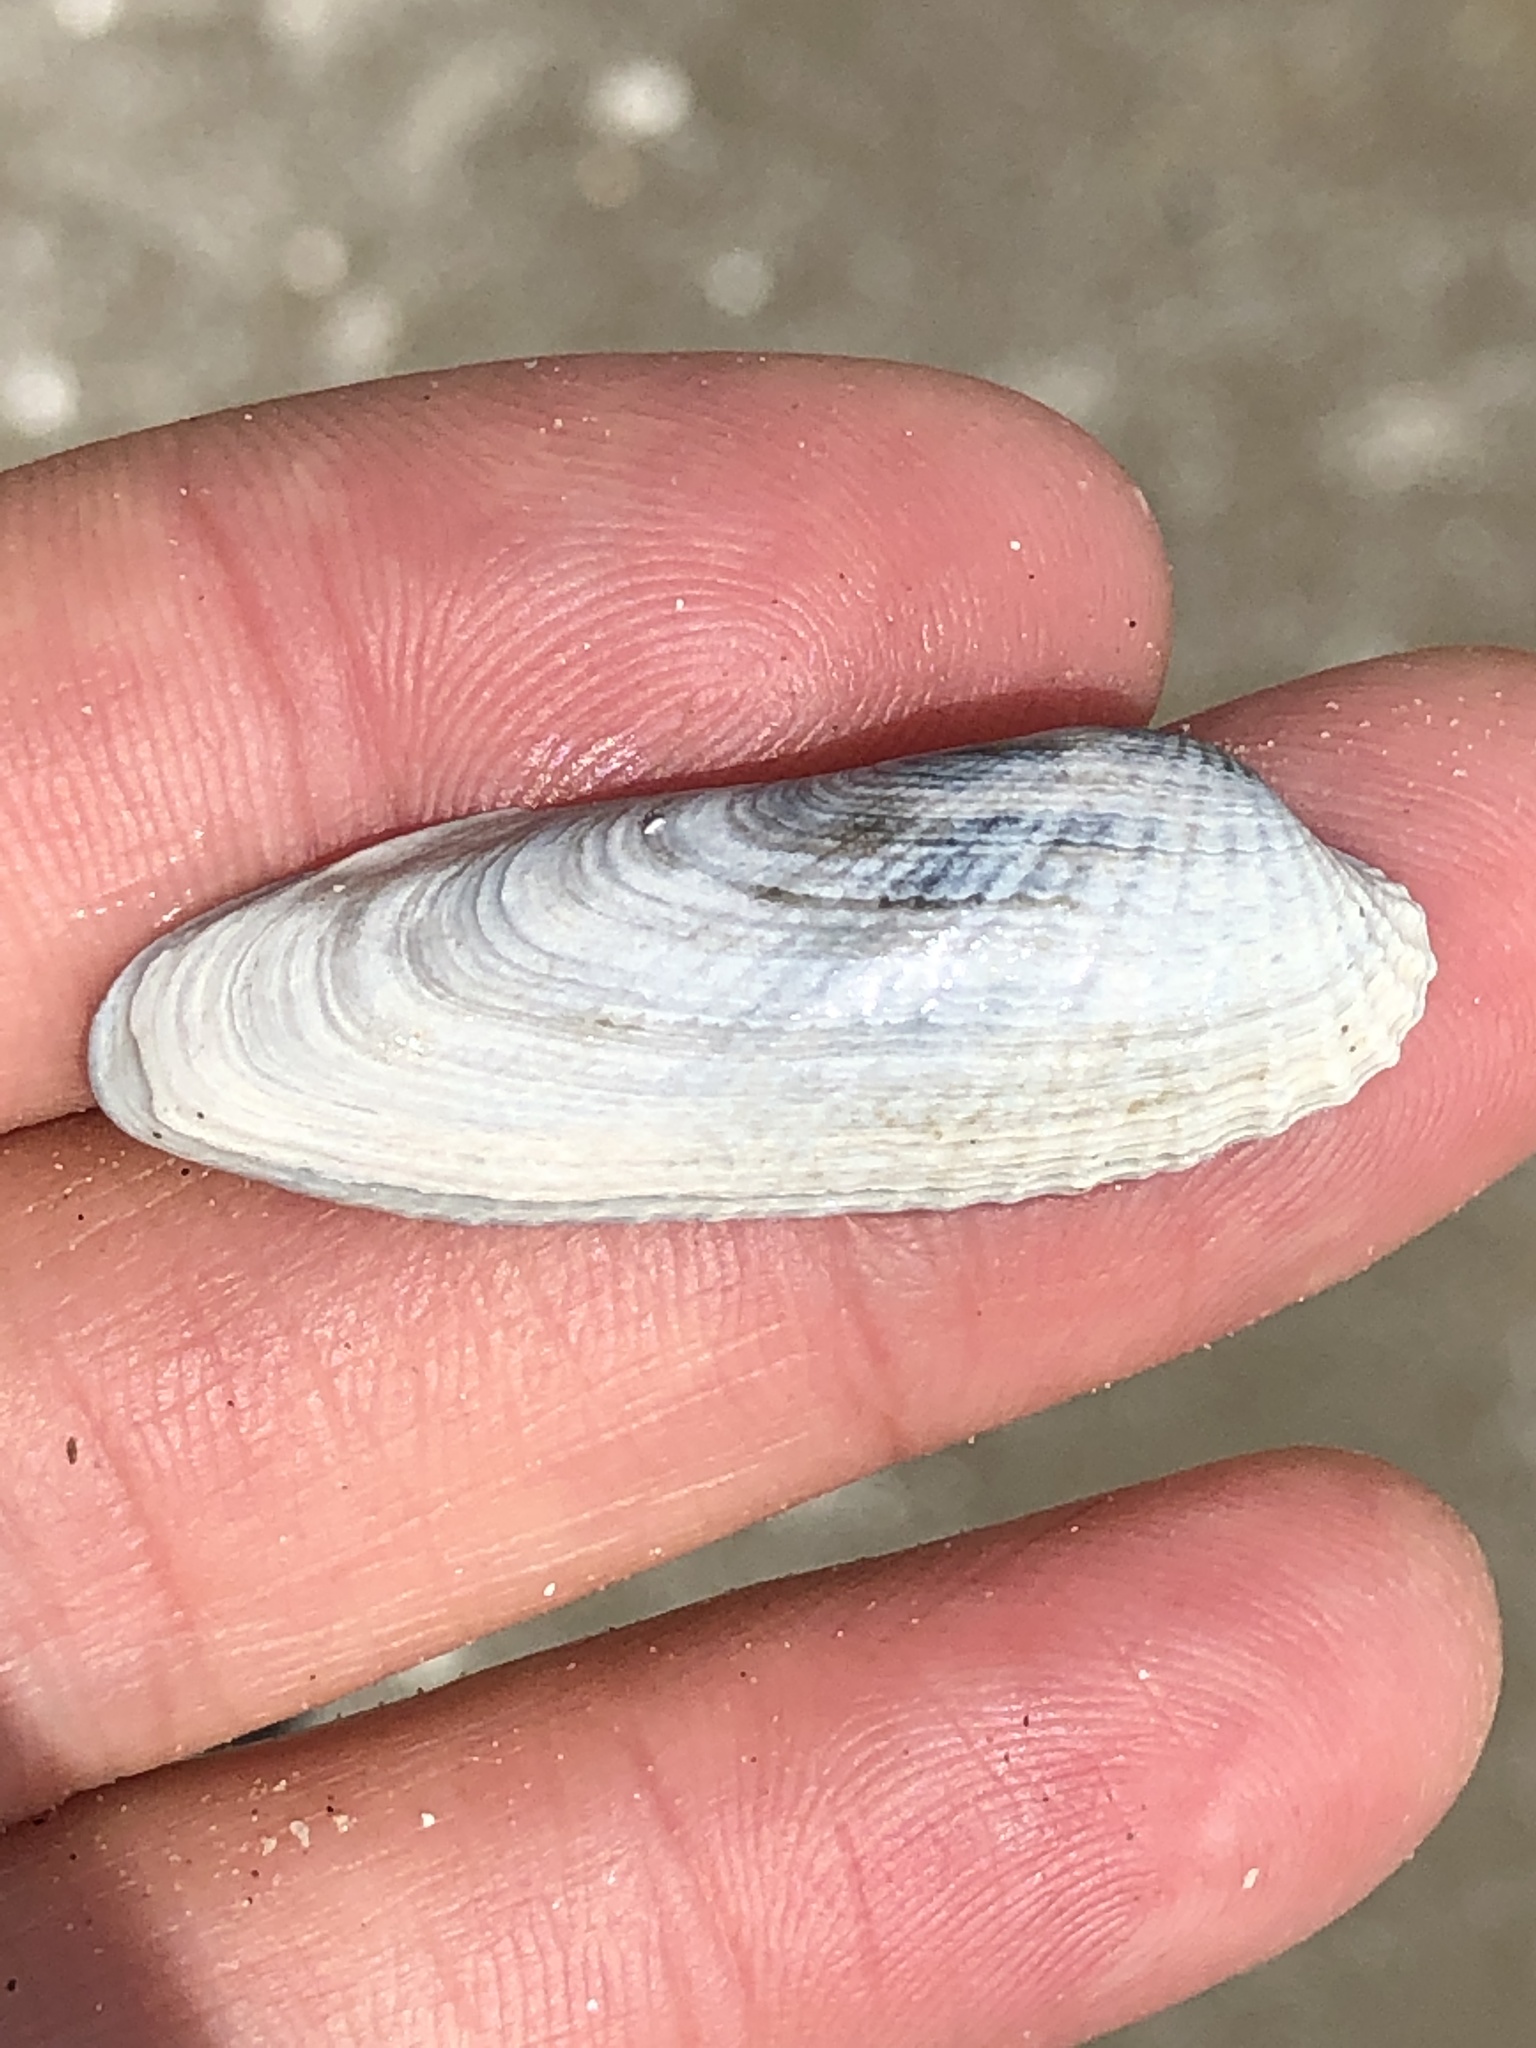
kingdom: Animalia
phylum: Mollusca
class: Bivalvia
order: Venerida
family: Veneridae
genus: Petricolaria
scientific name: Petricolaria pholadiformis
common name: American piddock
